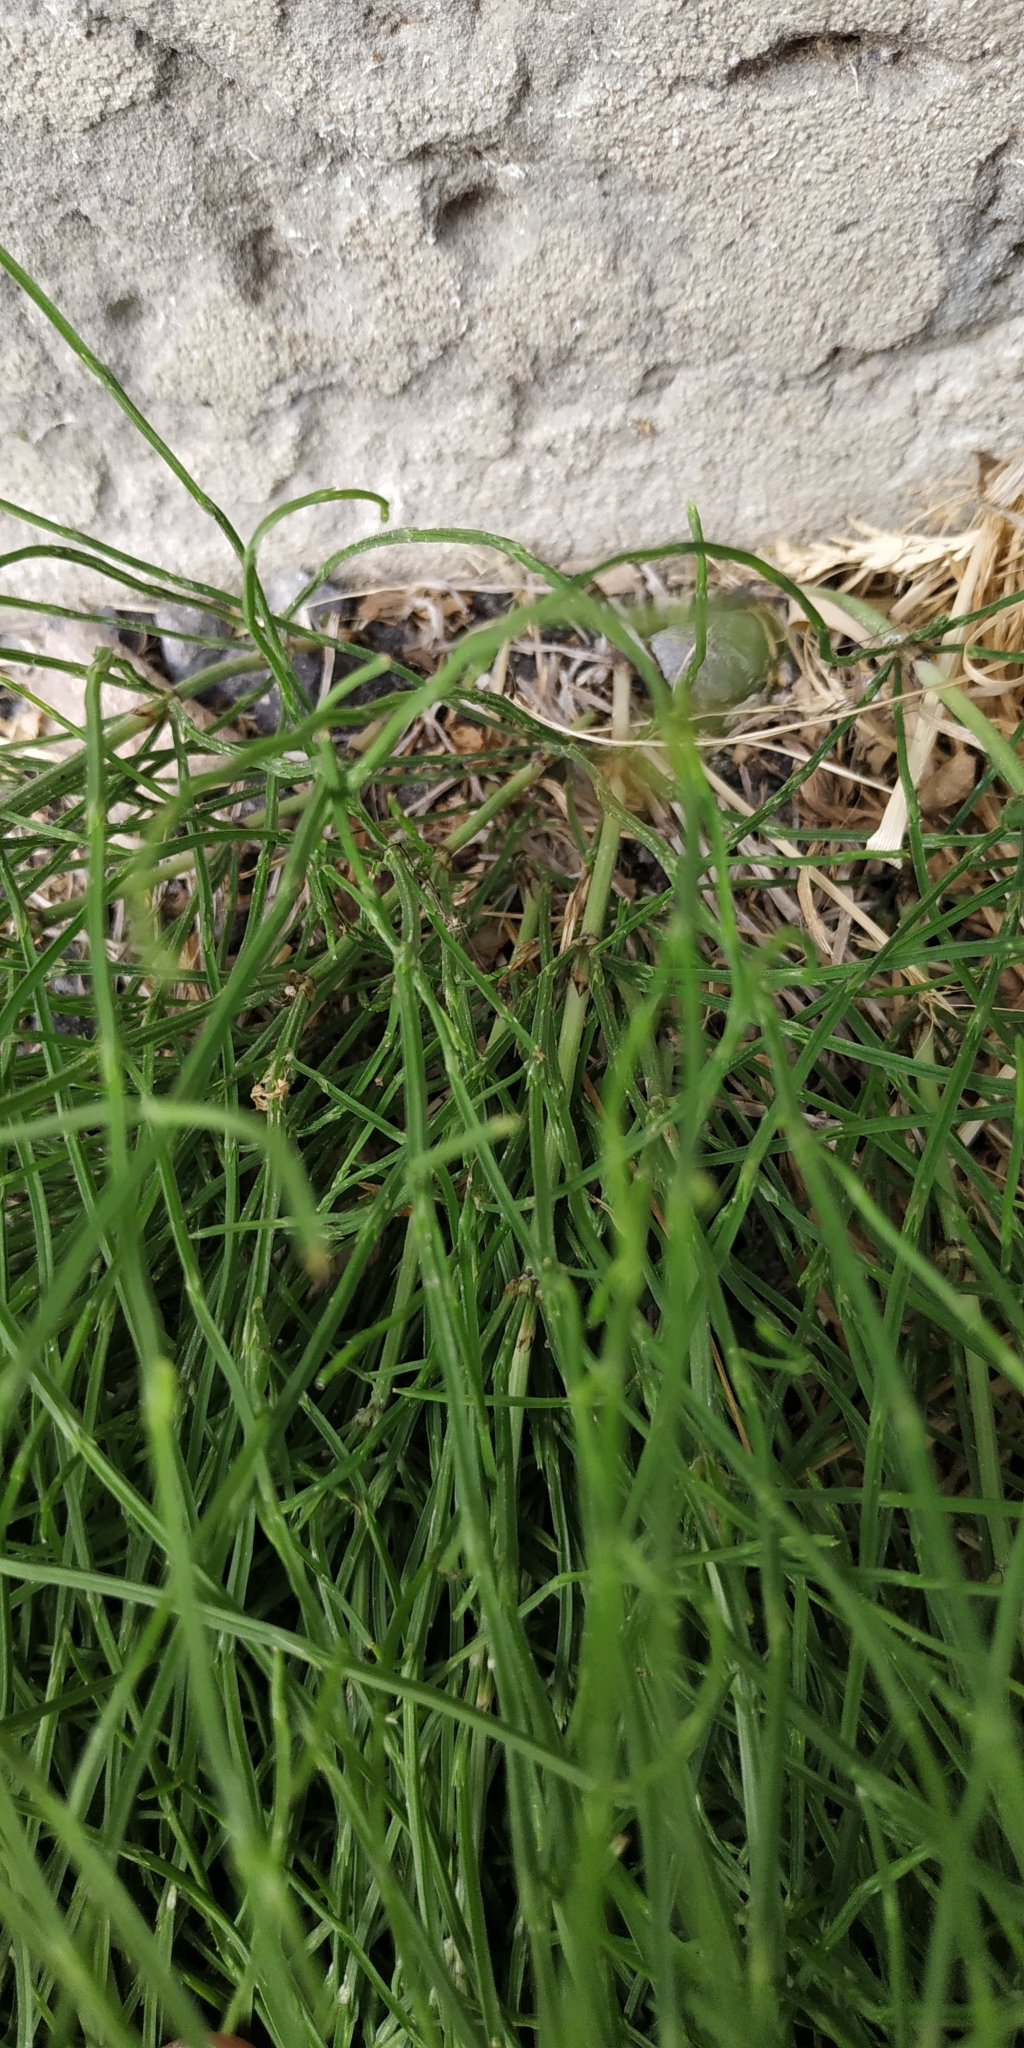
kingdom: Plantae
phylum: Tracheophyta
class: Polypodiopsida
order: Equisetales
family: Equisetaceae
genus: Equisetum
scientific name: Equisetum arvense
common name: Field horsetail
